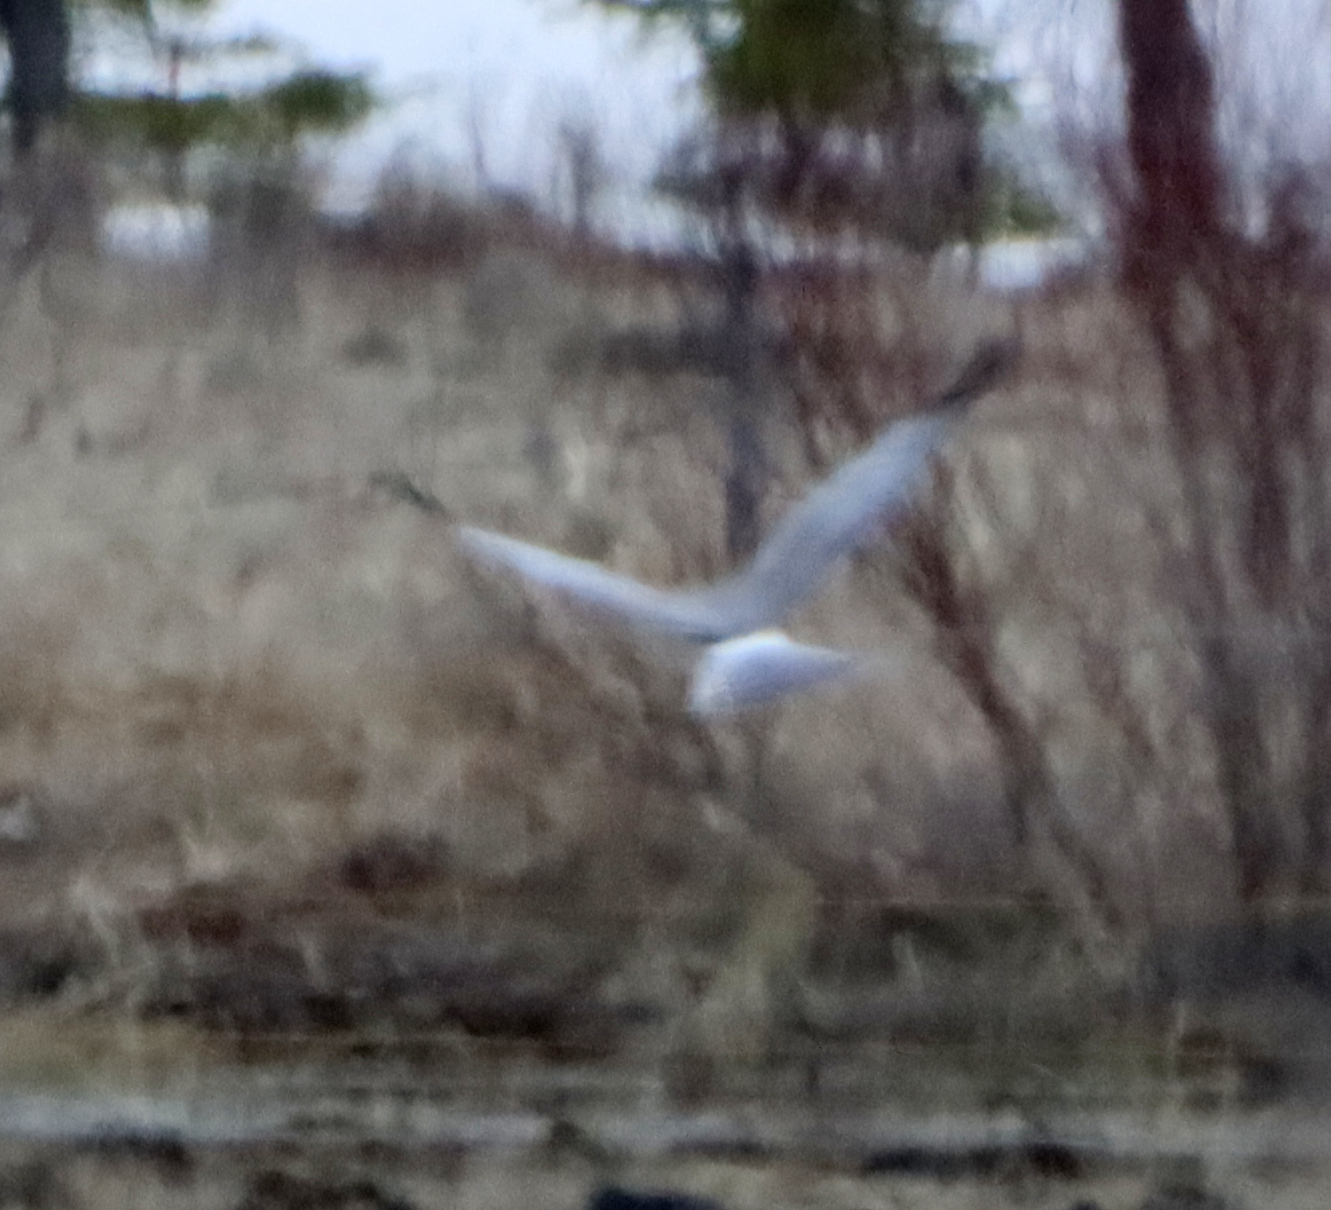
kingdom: Animalia
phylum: Chordata
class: Aves
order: Accipitriformes
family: Accipitridae
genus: Circus
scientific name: Circus cyaneus
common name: Hen harrier
